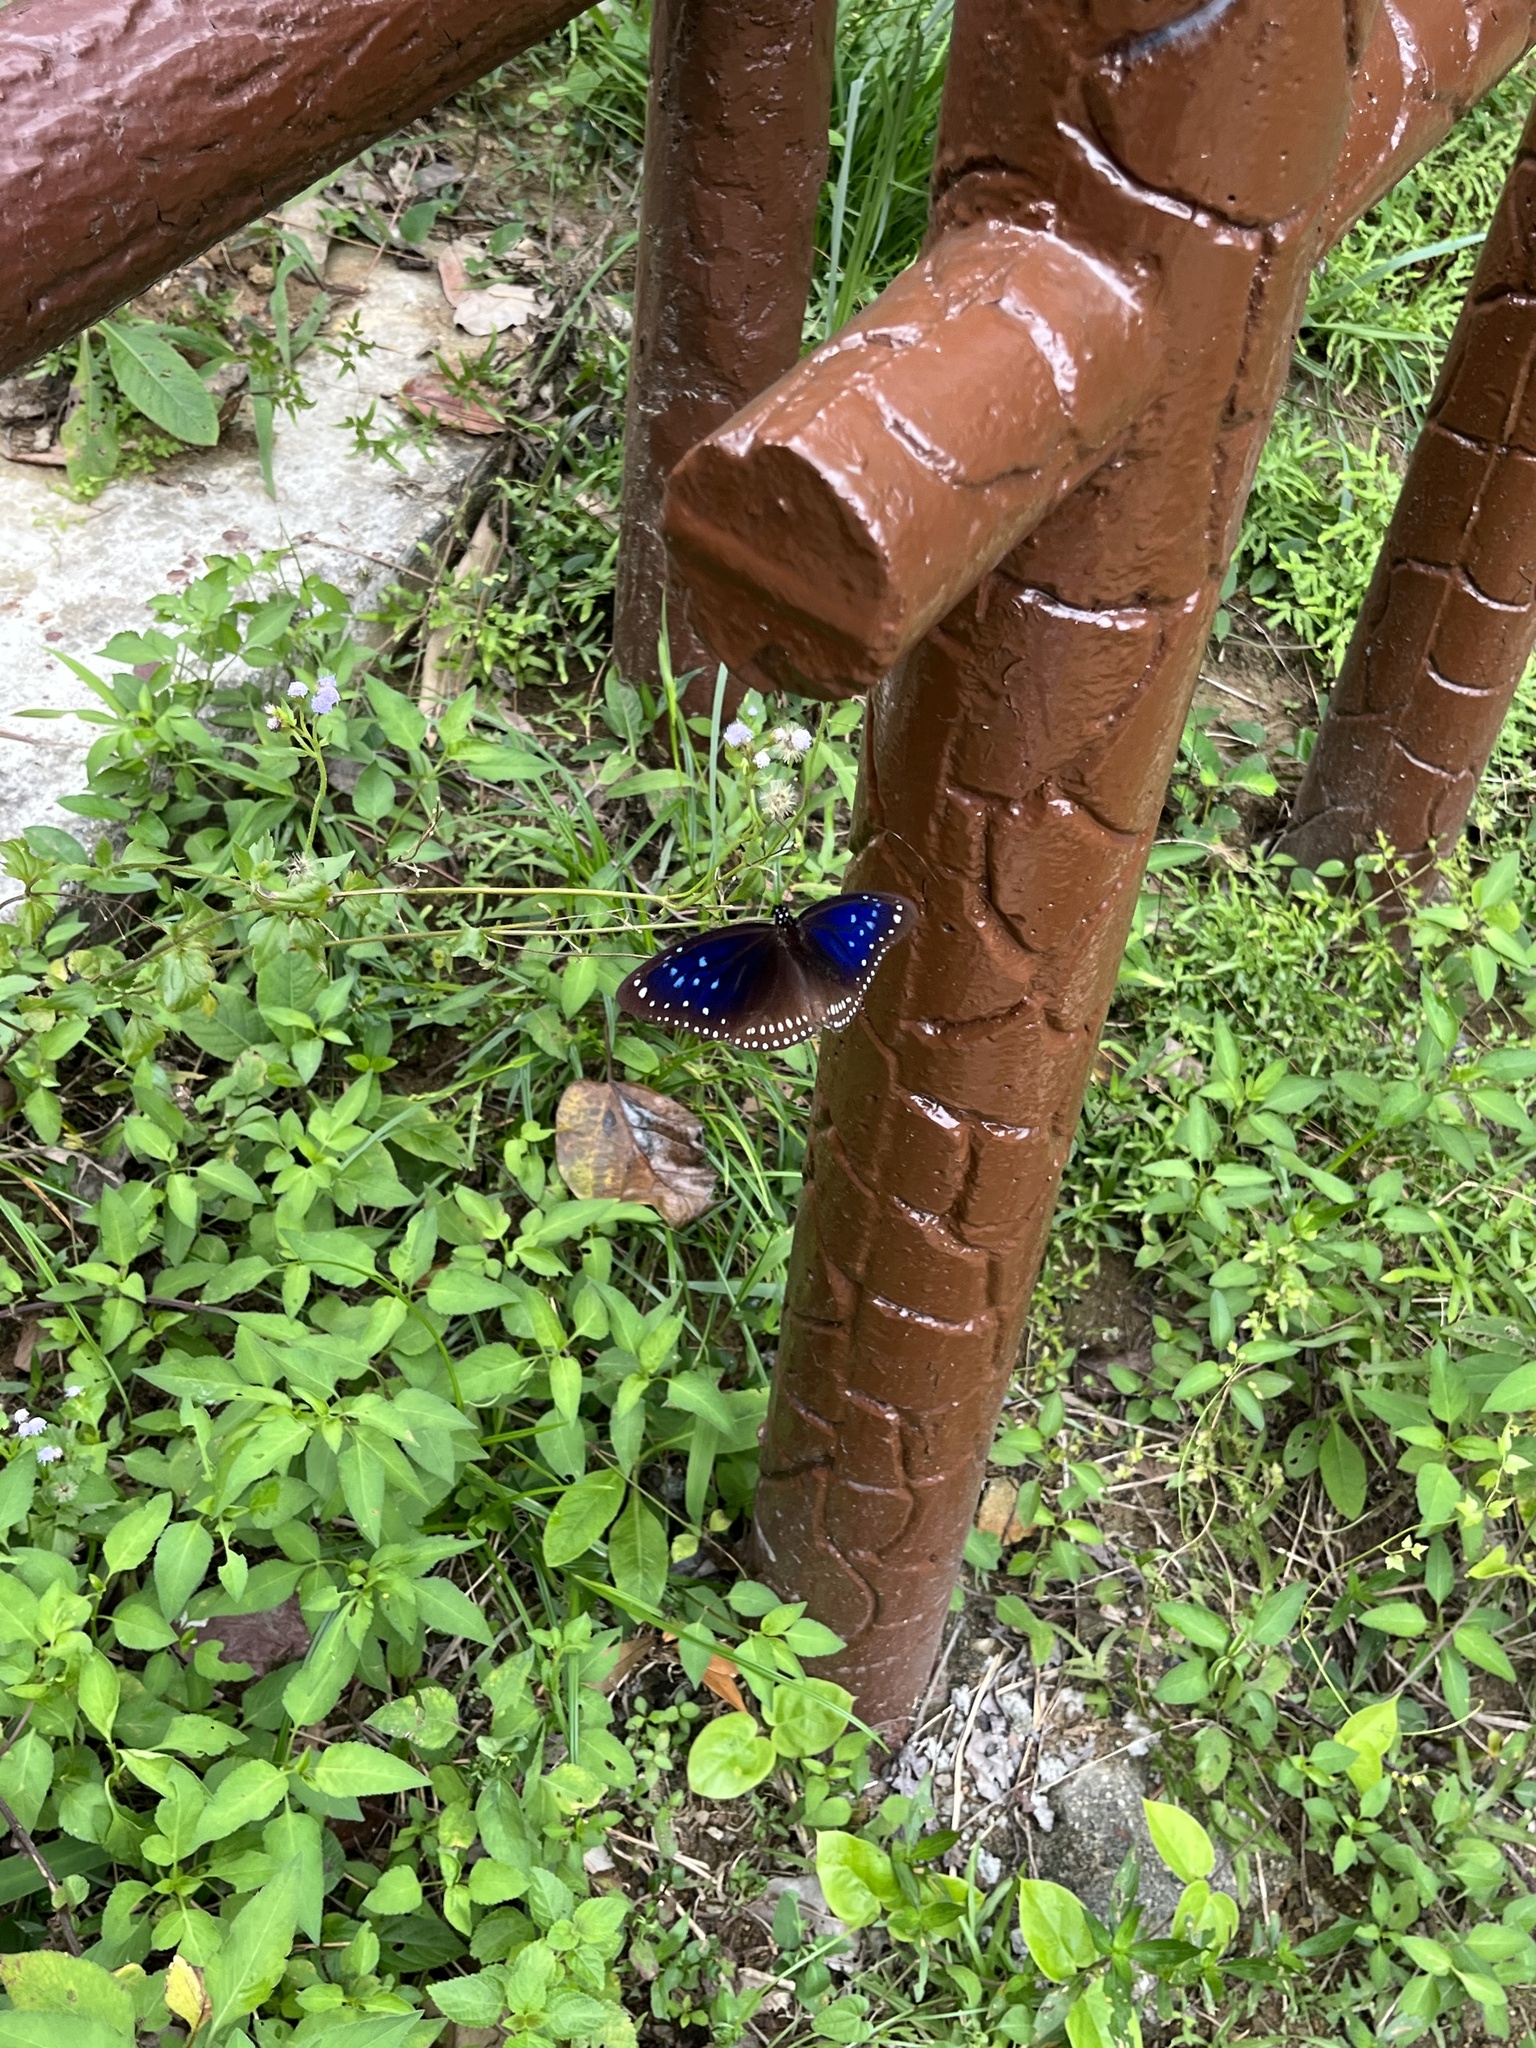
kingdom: Animalia
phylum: Arthropoda
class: Insecta
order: Lepidoptera
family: Nymphalidae
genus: Euploea
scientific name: Euploea midamus
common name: Blue-spotted crow butterfly
